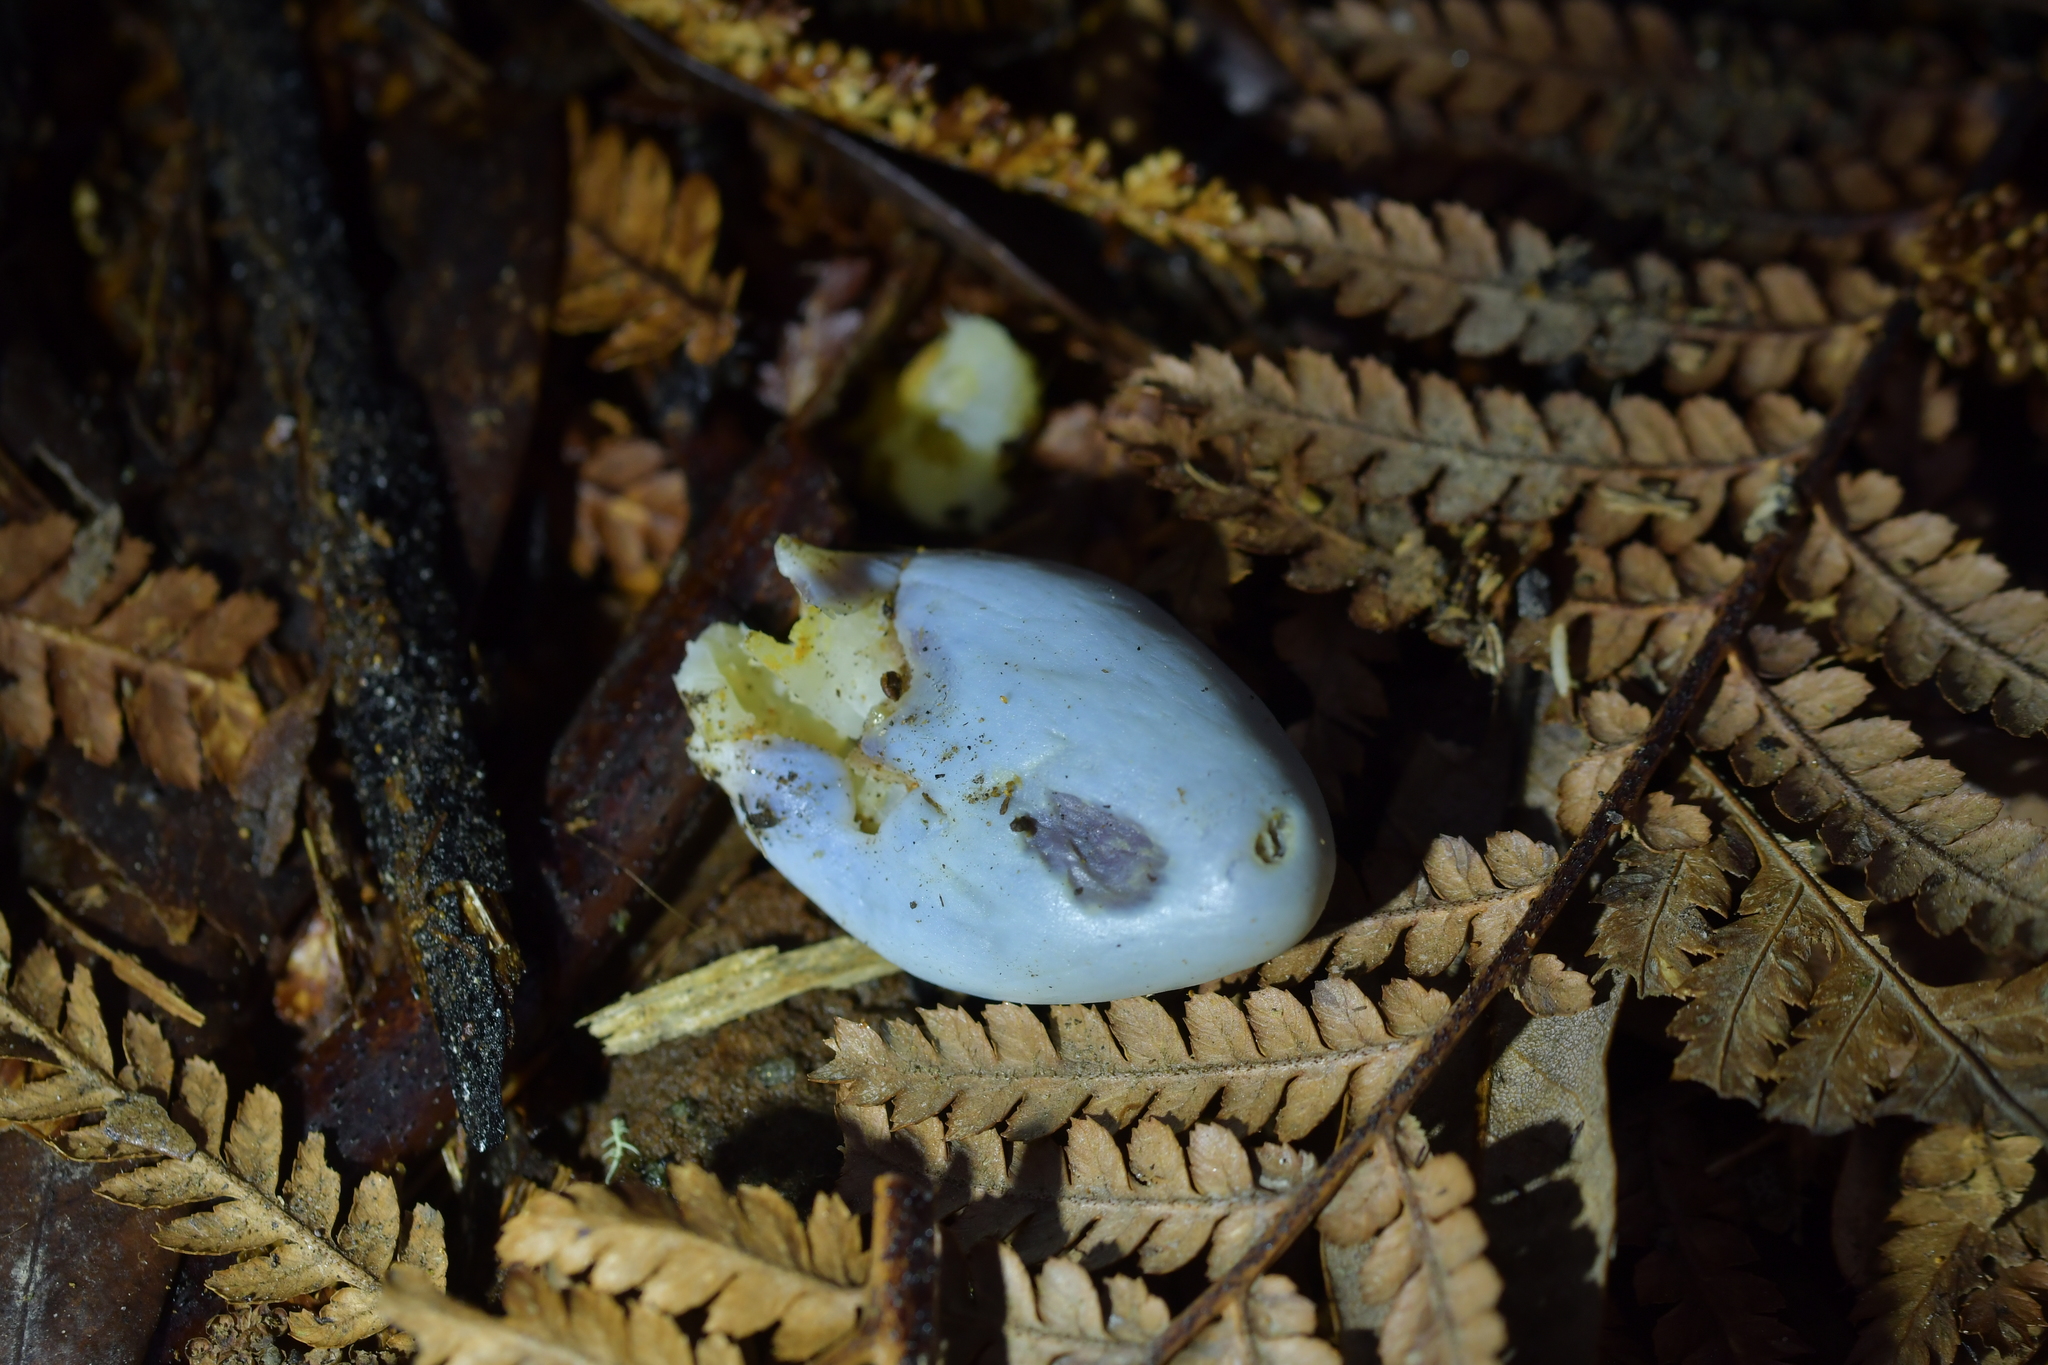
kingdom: Fungi
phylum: Basidiomycota
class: Agaricomycetes
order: Agaricales
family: Agaricaceae
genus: Clavogaster
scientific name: Clavogaster virescens
